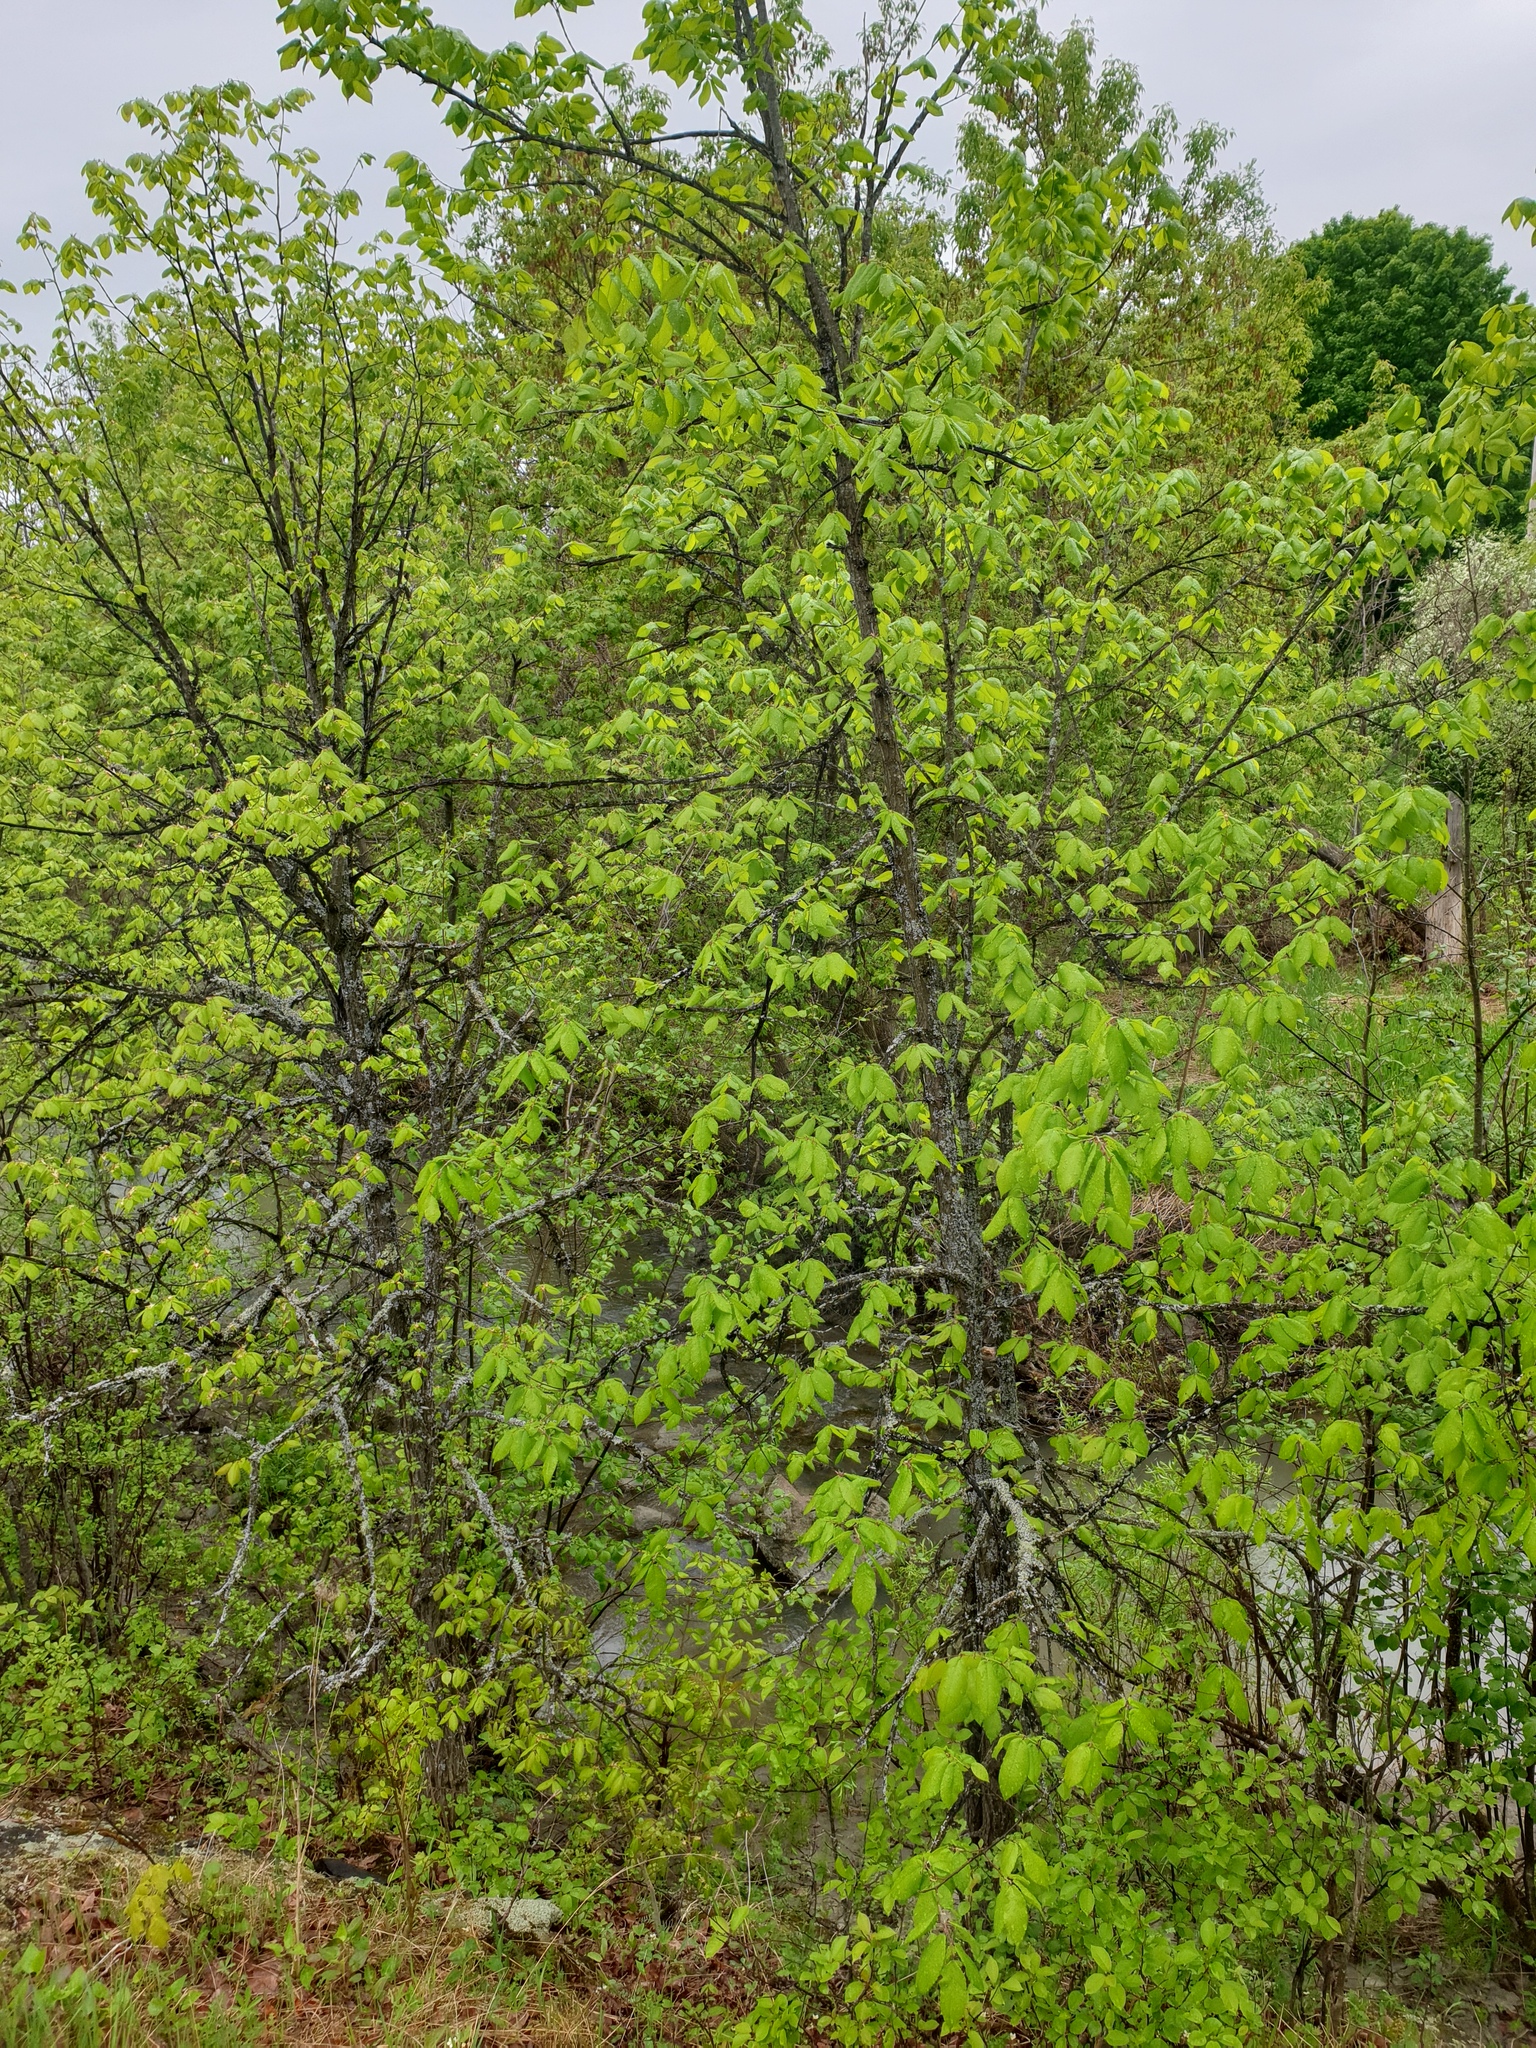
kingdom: Plantae
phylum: Tracheophyta
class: Magnoliopsida
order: Rosales
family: Ulmaceae
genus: Ulmus
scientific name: Ulmus thomasii
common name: Rock elm
